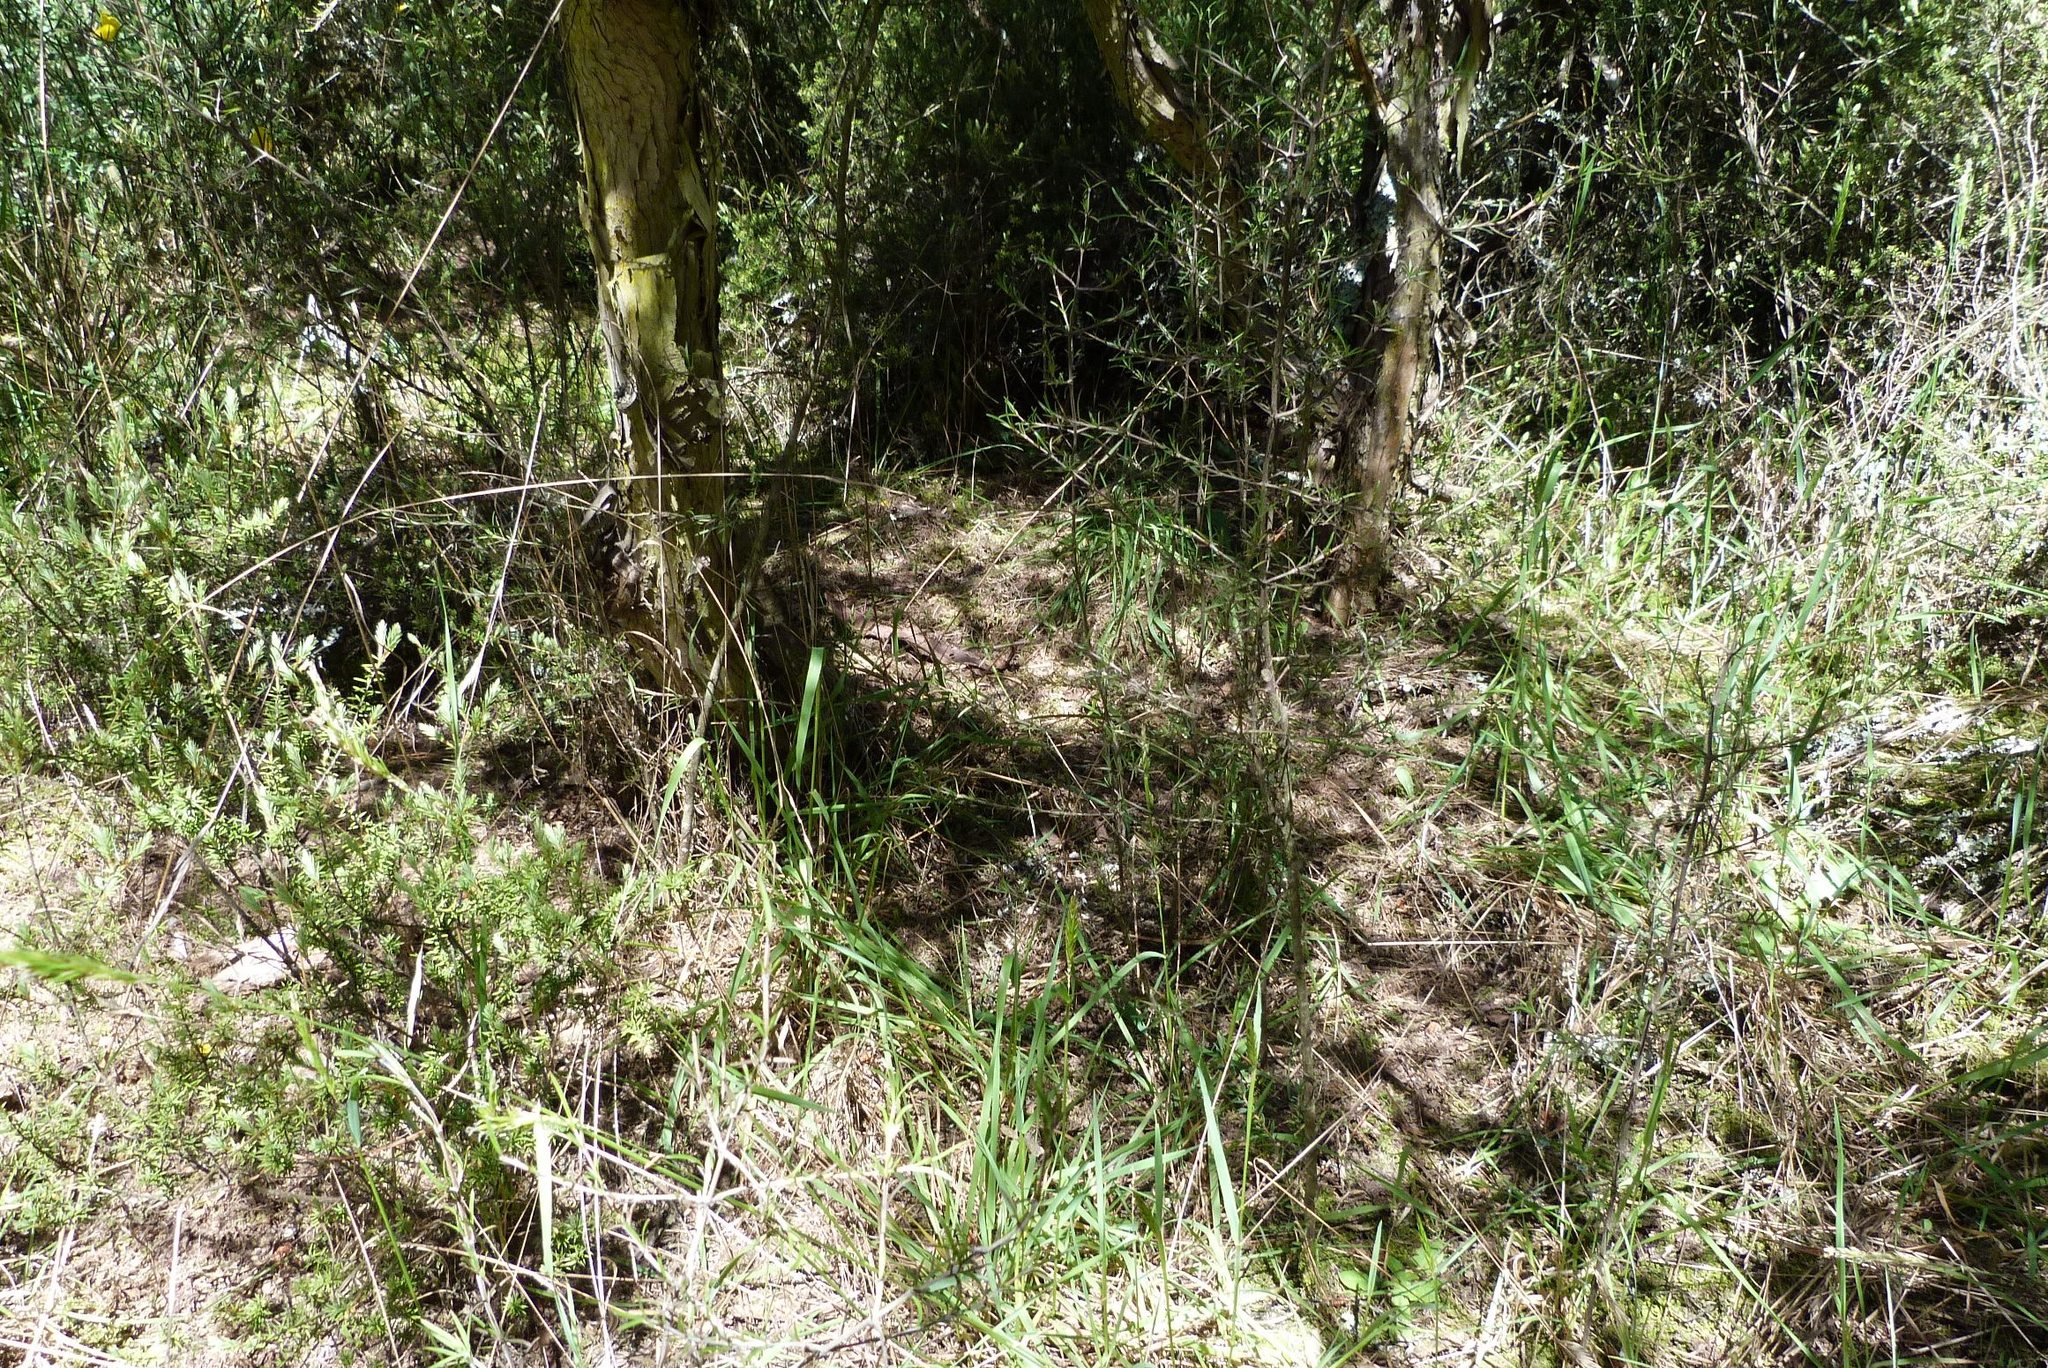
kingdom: Plantae
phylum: Tracheophyta
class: Magnoliopsida
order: Gentianales
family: Rubiaceae
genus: Coprosma
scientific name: Coprosma intertexta
